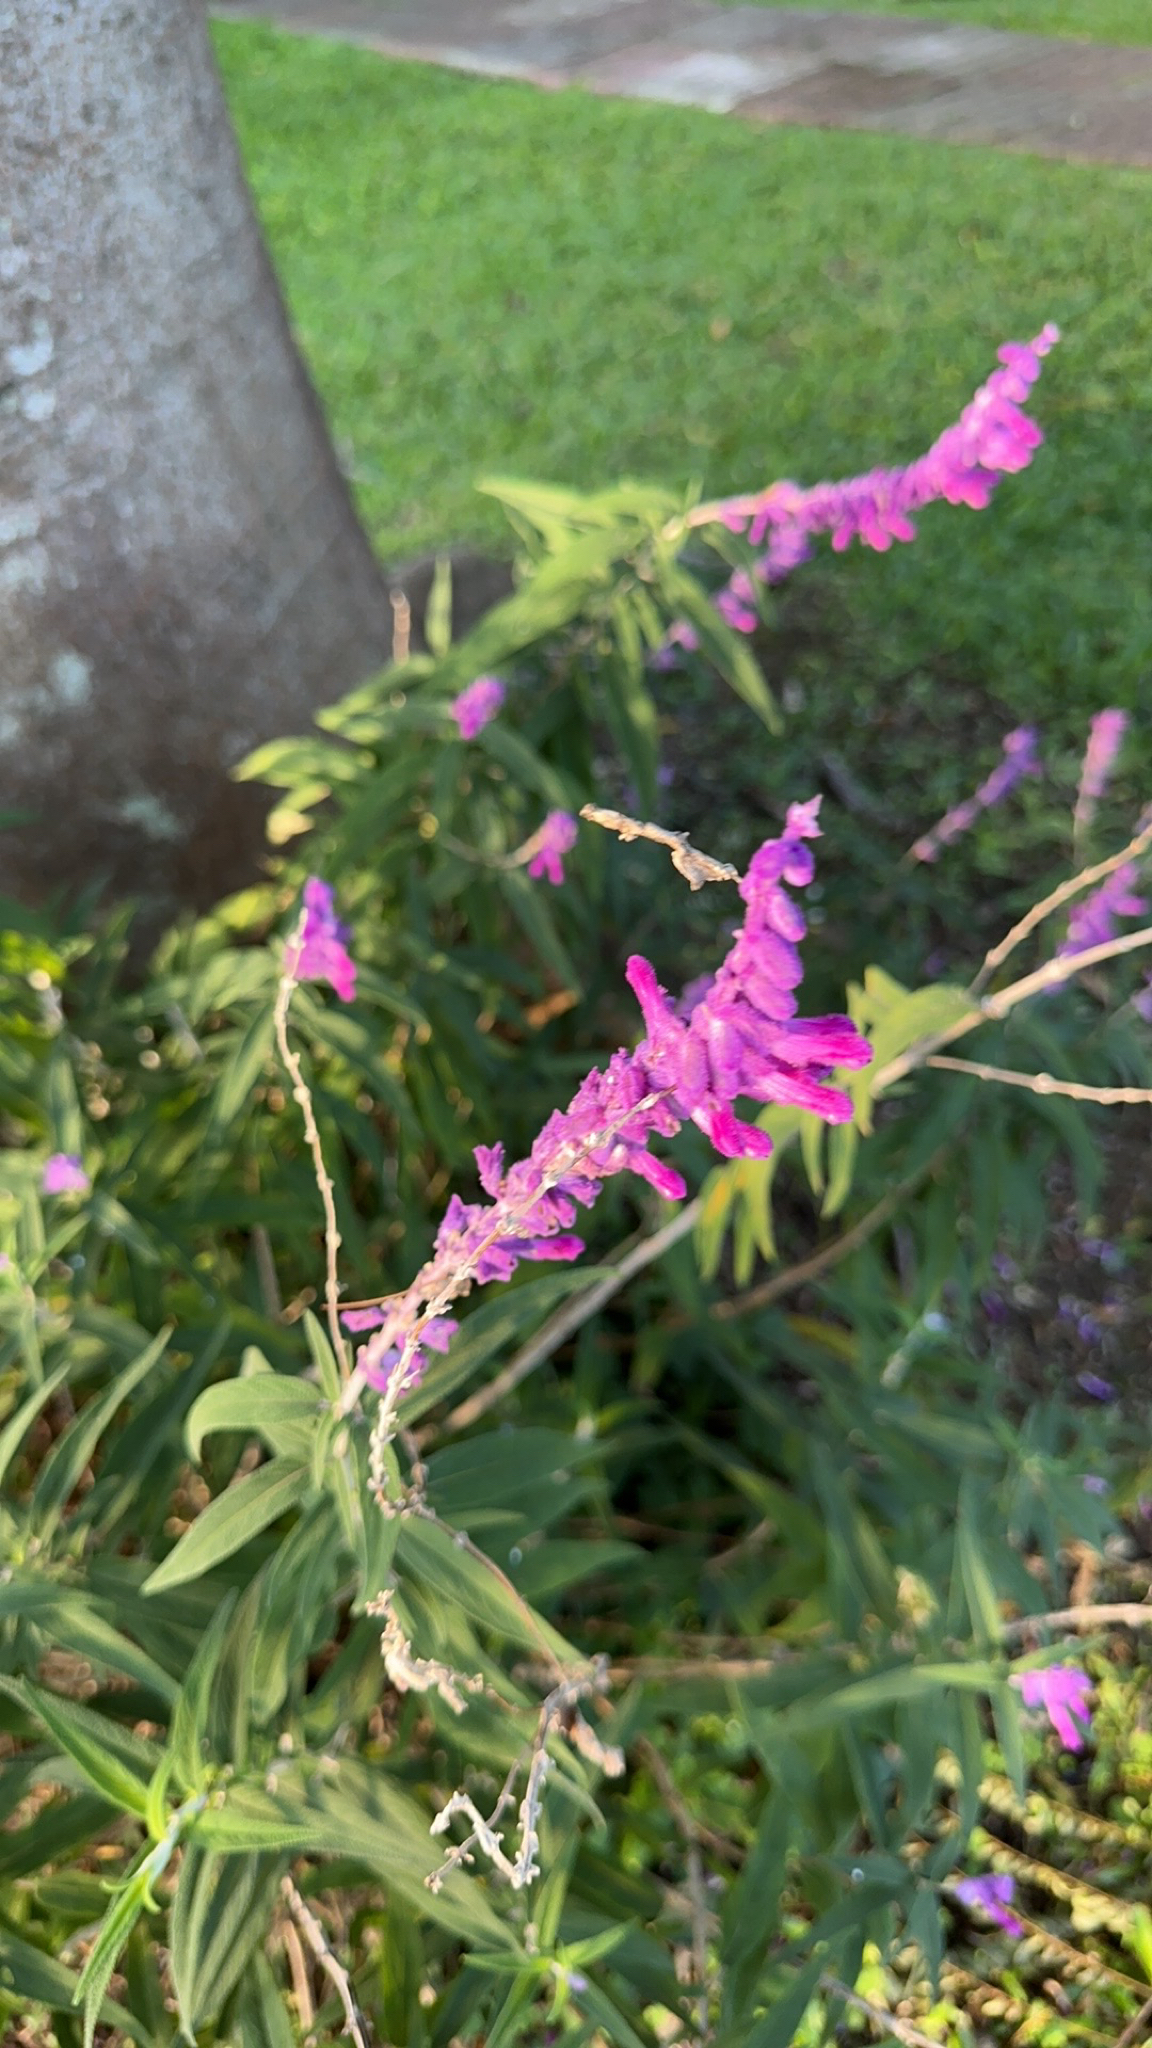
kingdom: Plantae
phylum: Tracheophyta
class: Magnoliopsida
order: Lamiales
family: Lamiaceae
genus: Salvia
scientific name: Salvia leucantha
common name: Mexican bush sage
